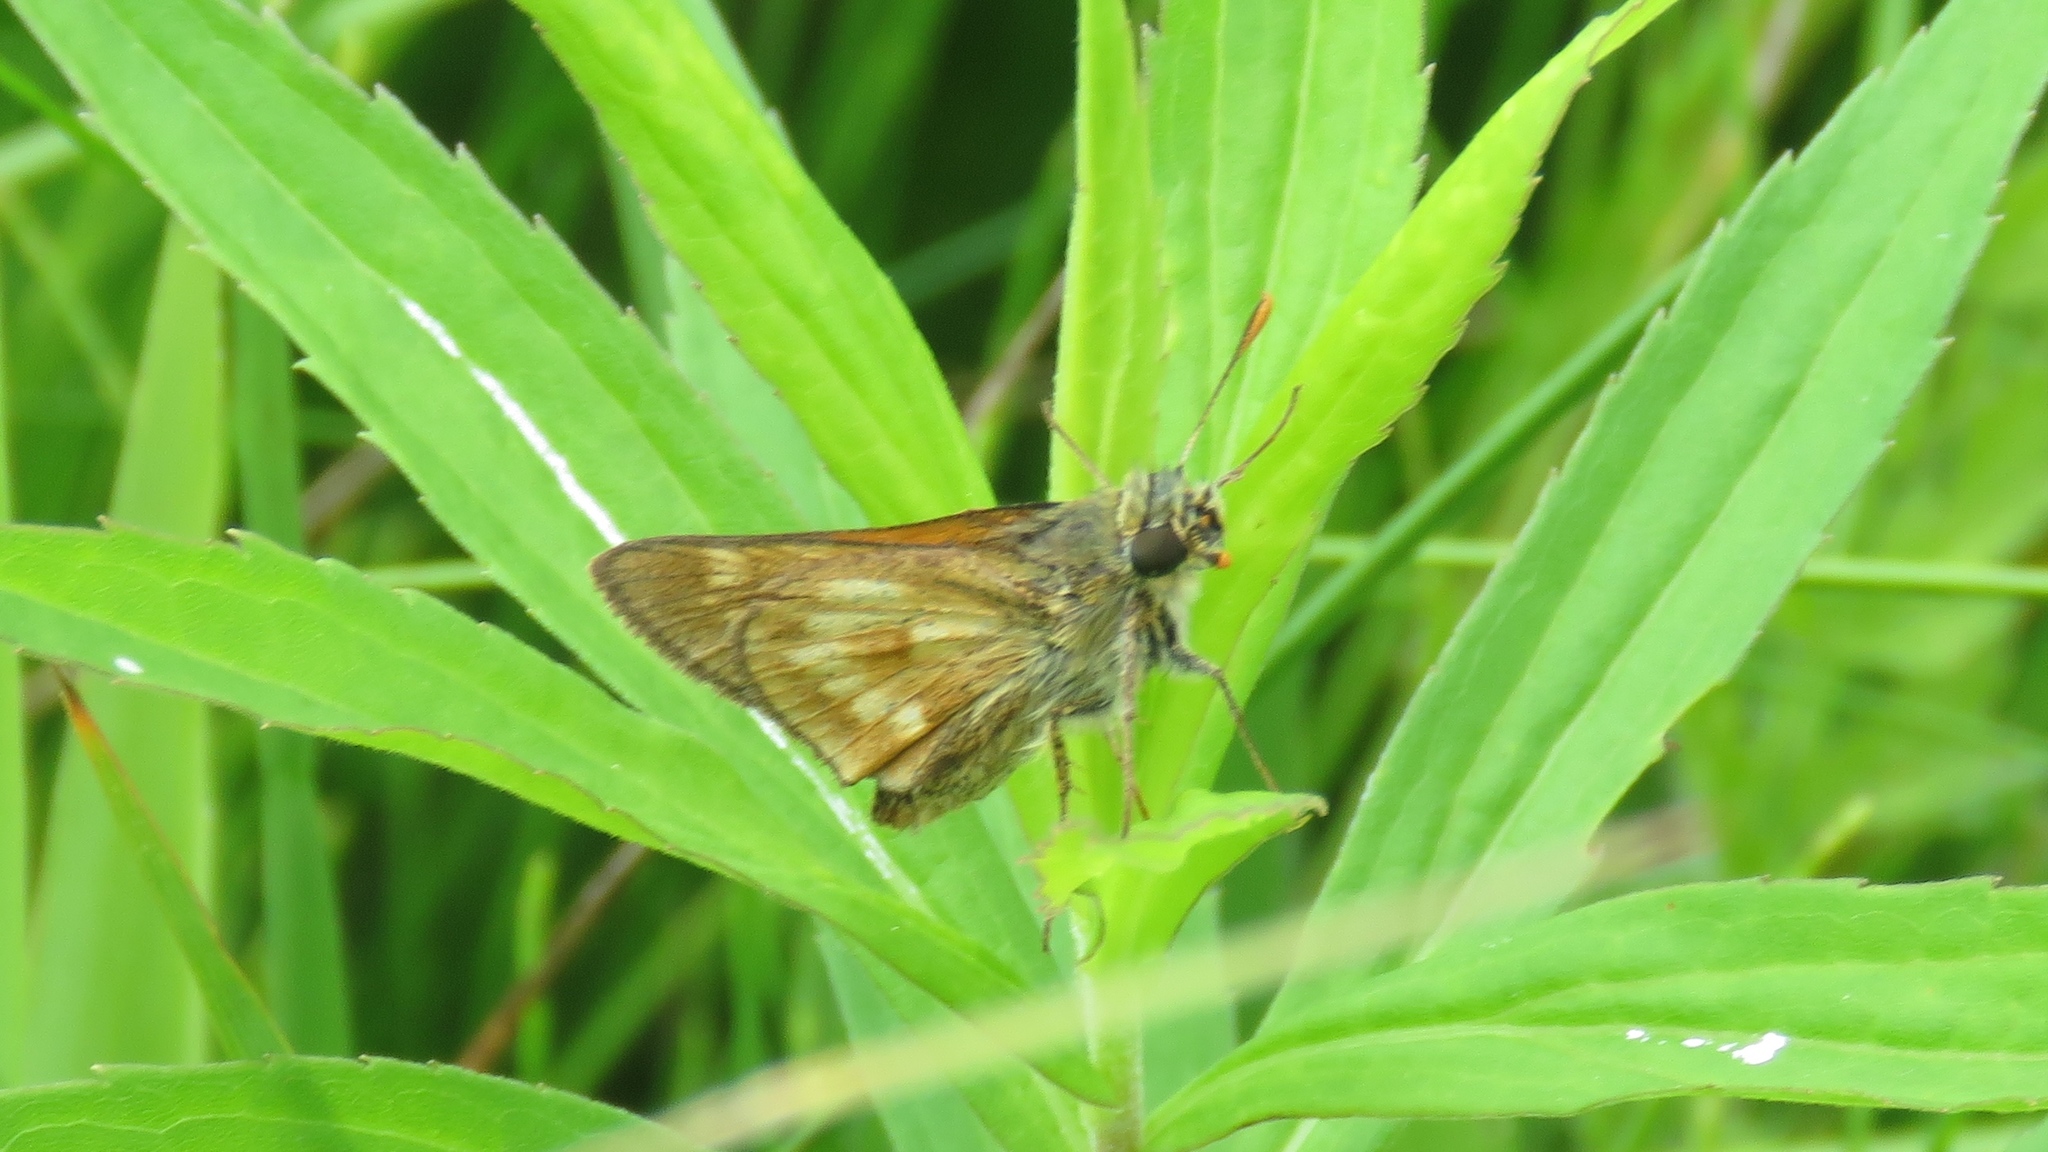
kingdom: Animalia
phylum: Arthropoda
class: Insecta
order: Lepidoptera
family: Hesperiidae
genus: Polites
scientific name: Polites mystic
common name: Long dash
